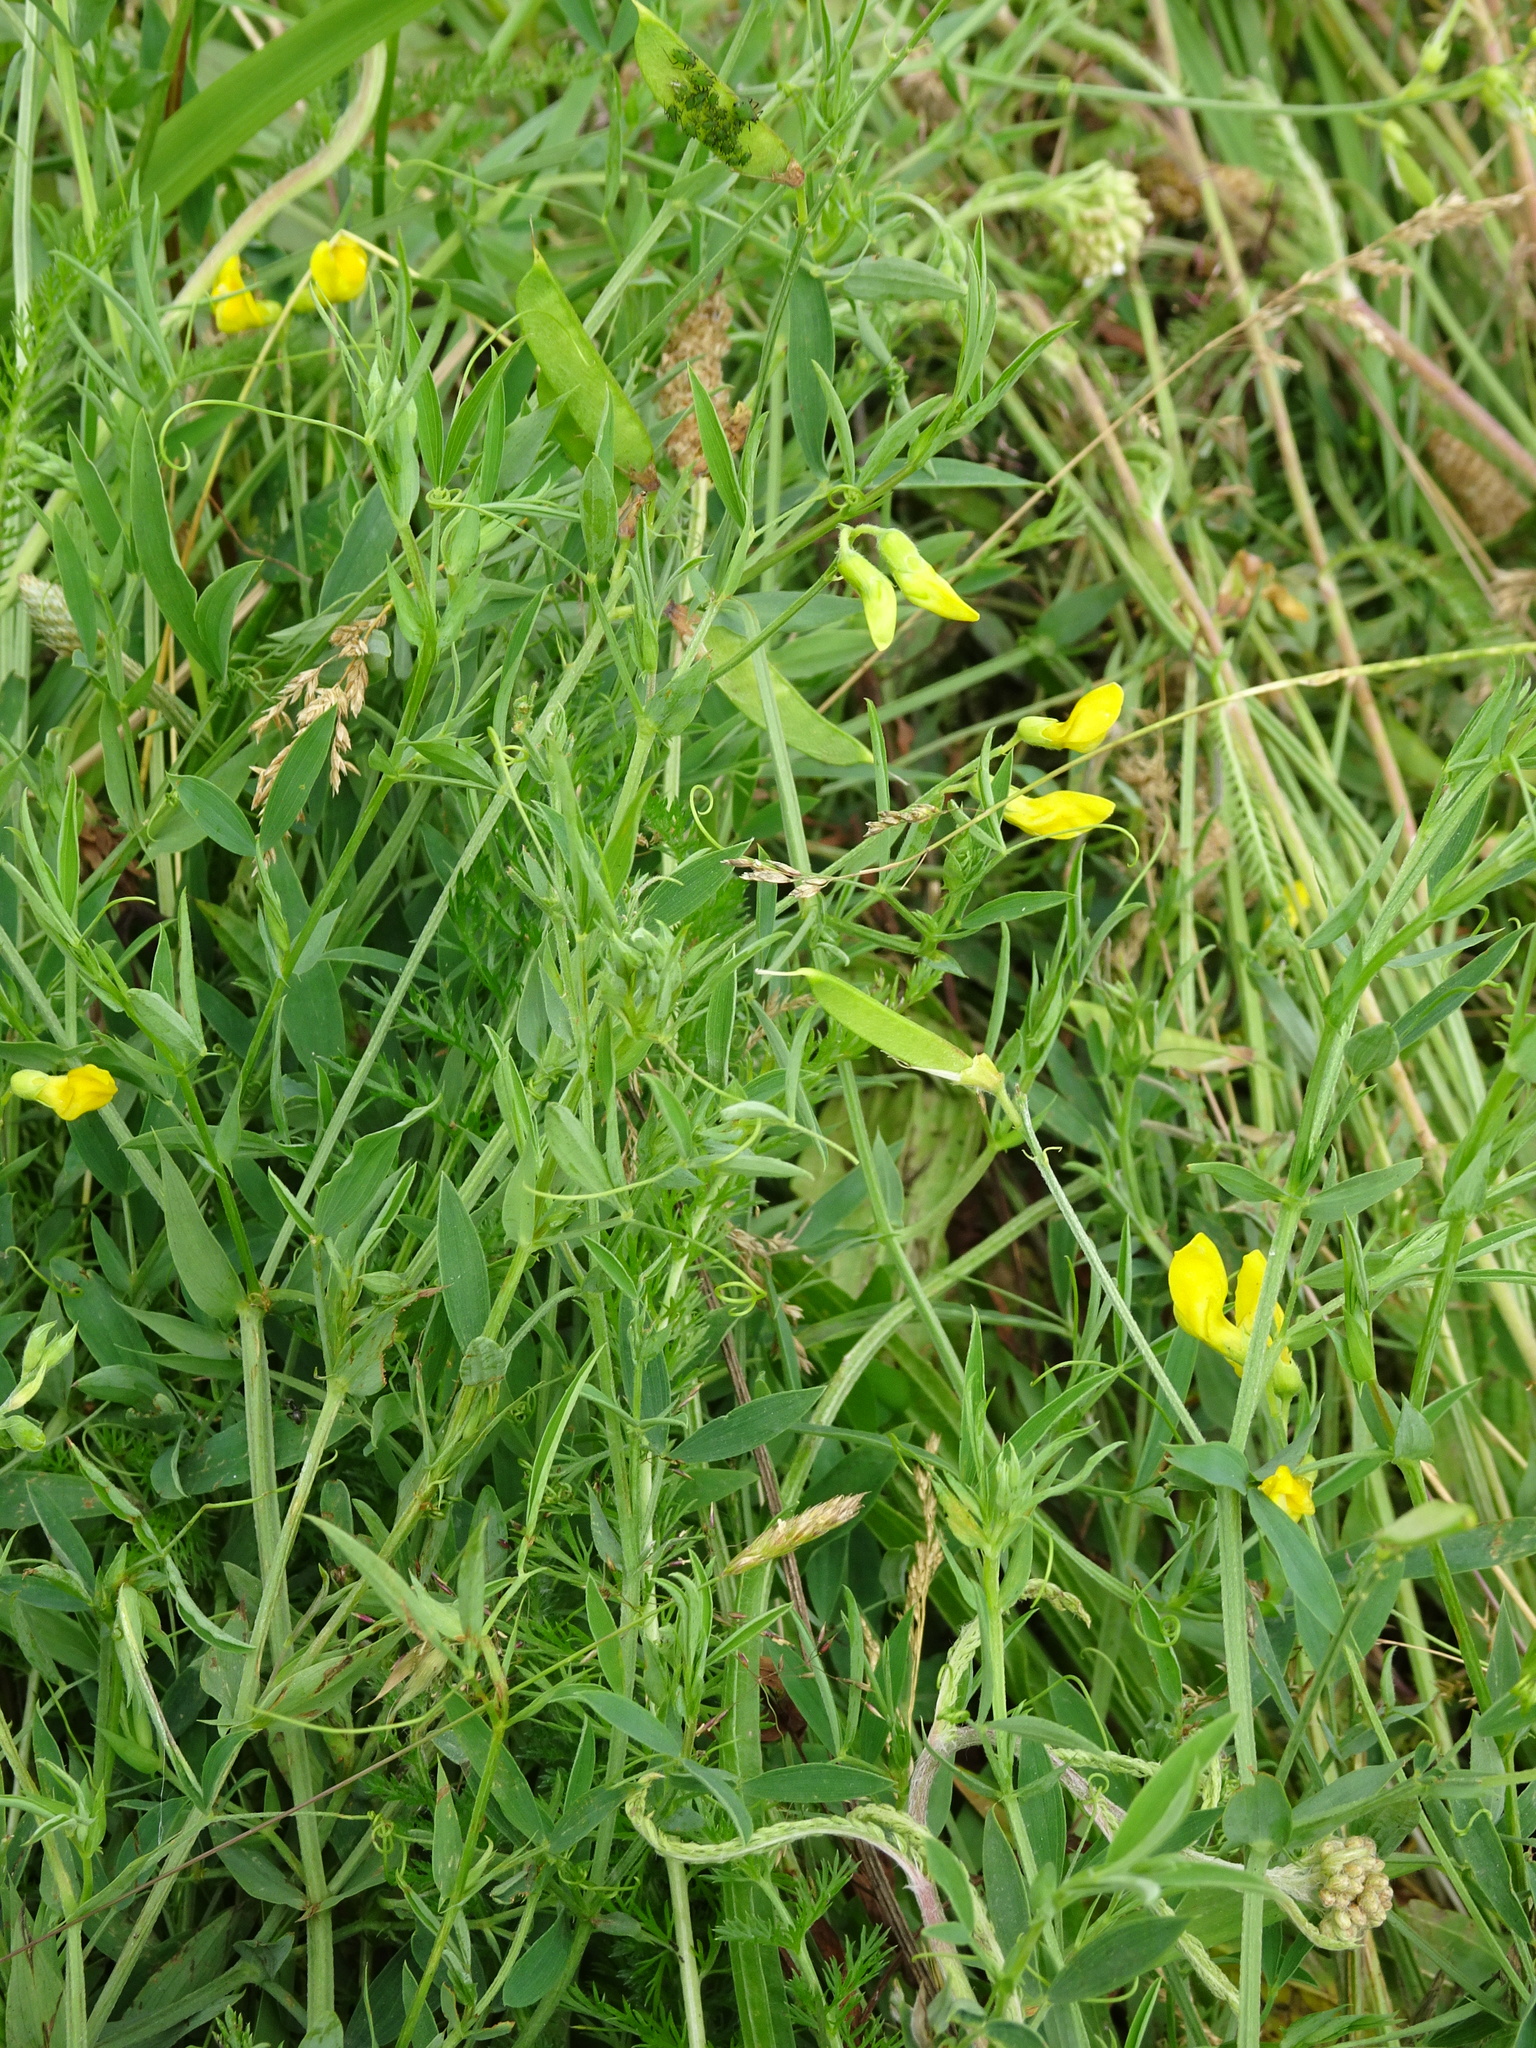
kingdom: Plantae
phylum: Tracheophyta
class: Magnoliopsida
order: Fabales
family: Fabaceae
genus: Lathyrus
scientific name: Lathyrus pratensis
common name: Meadow vetchling
